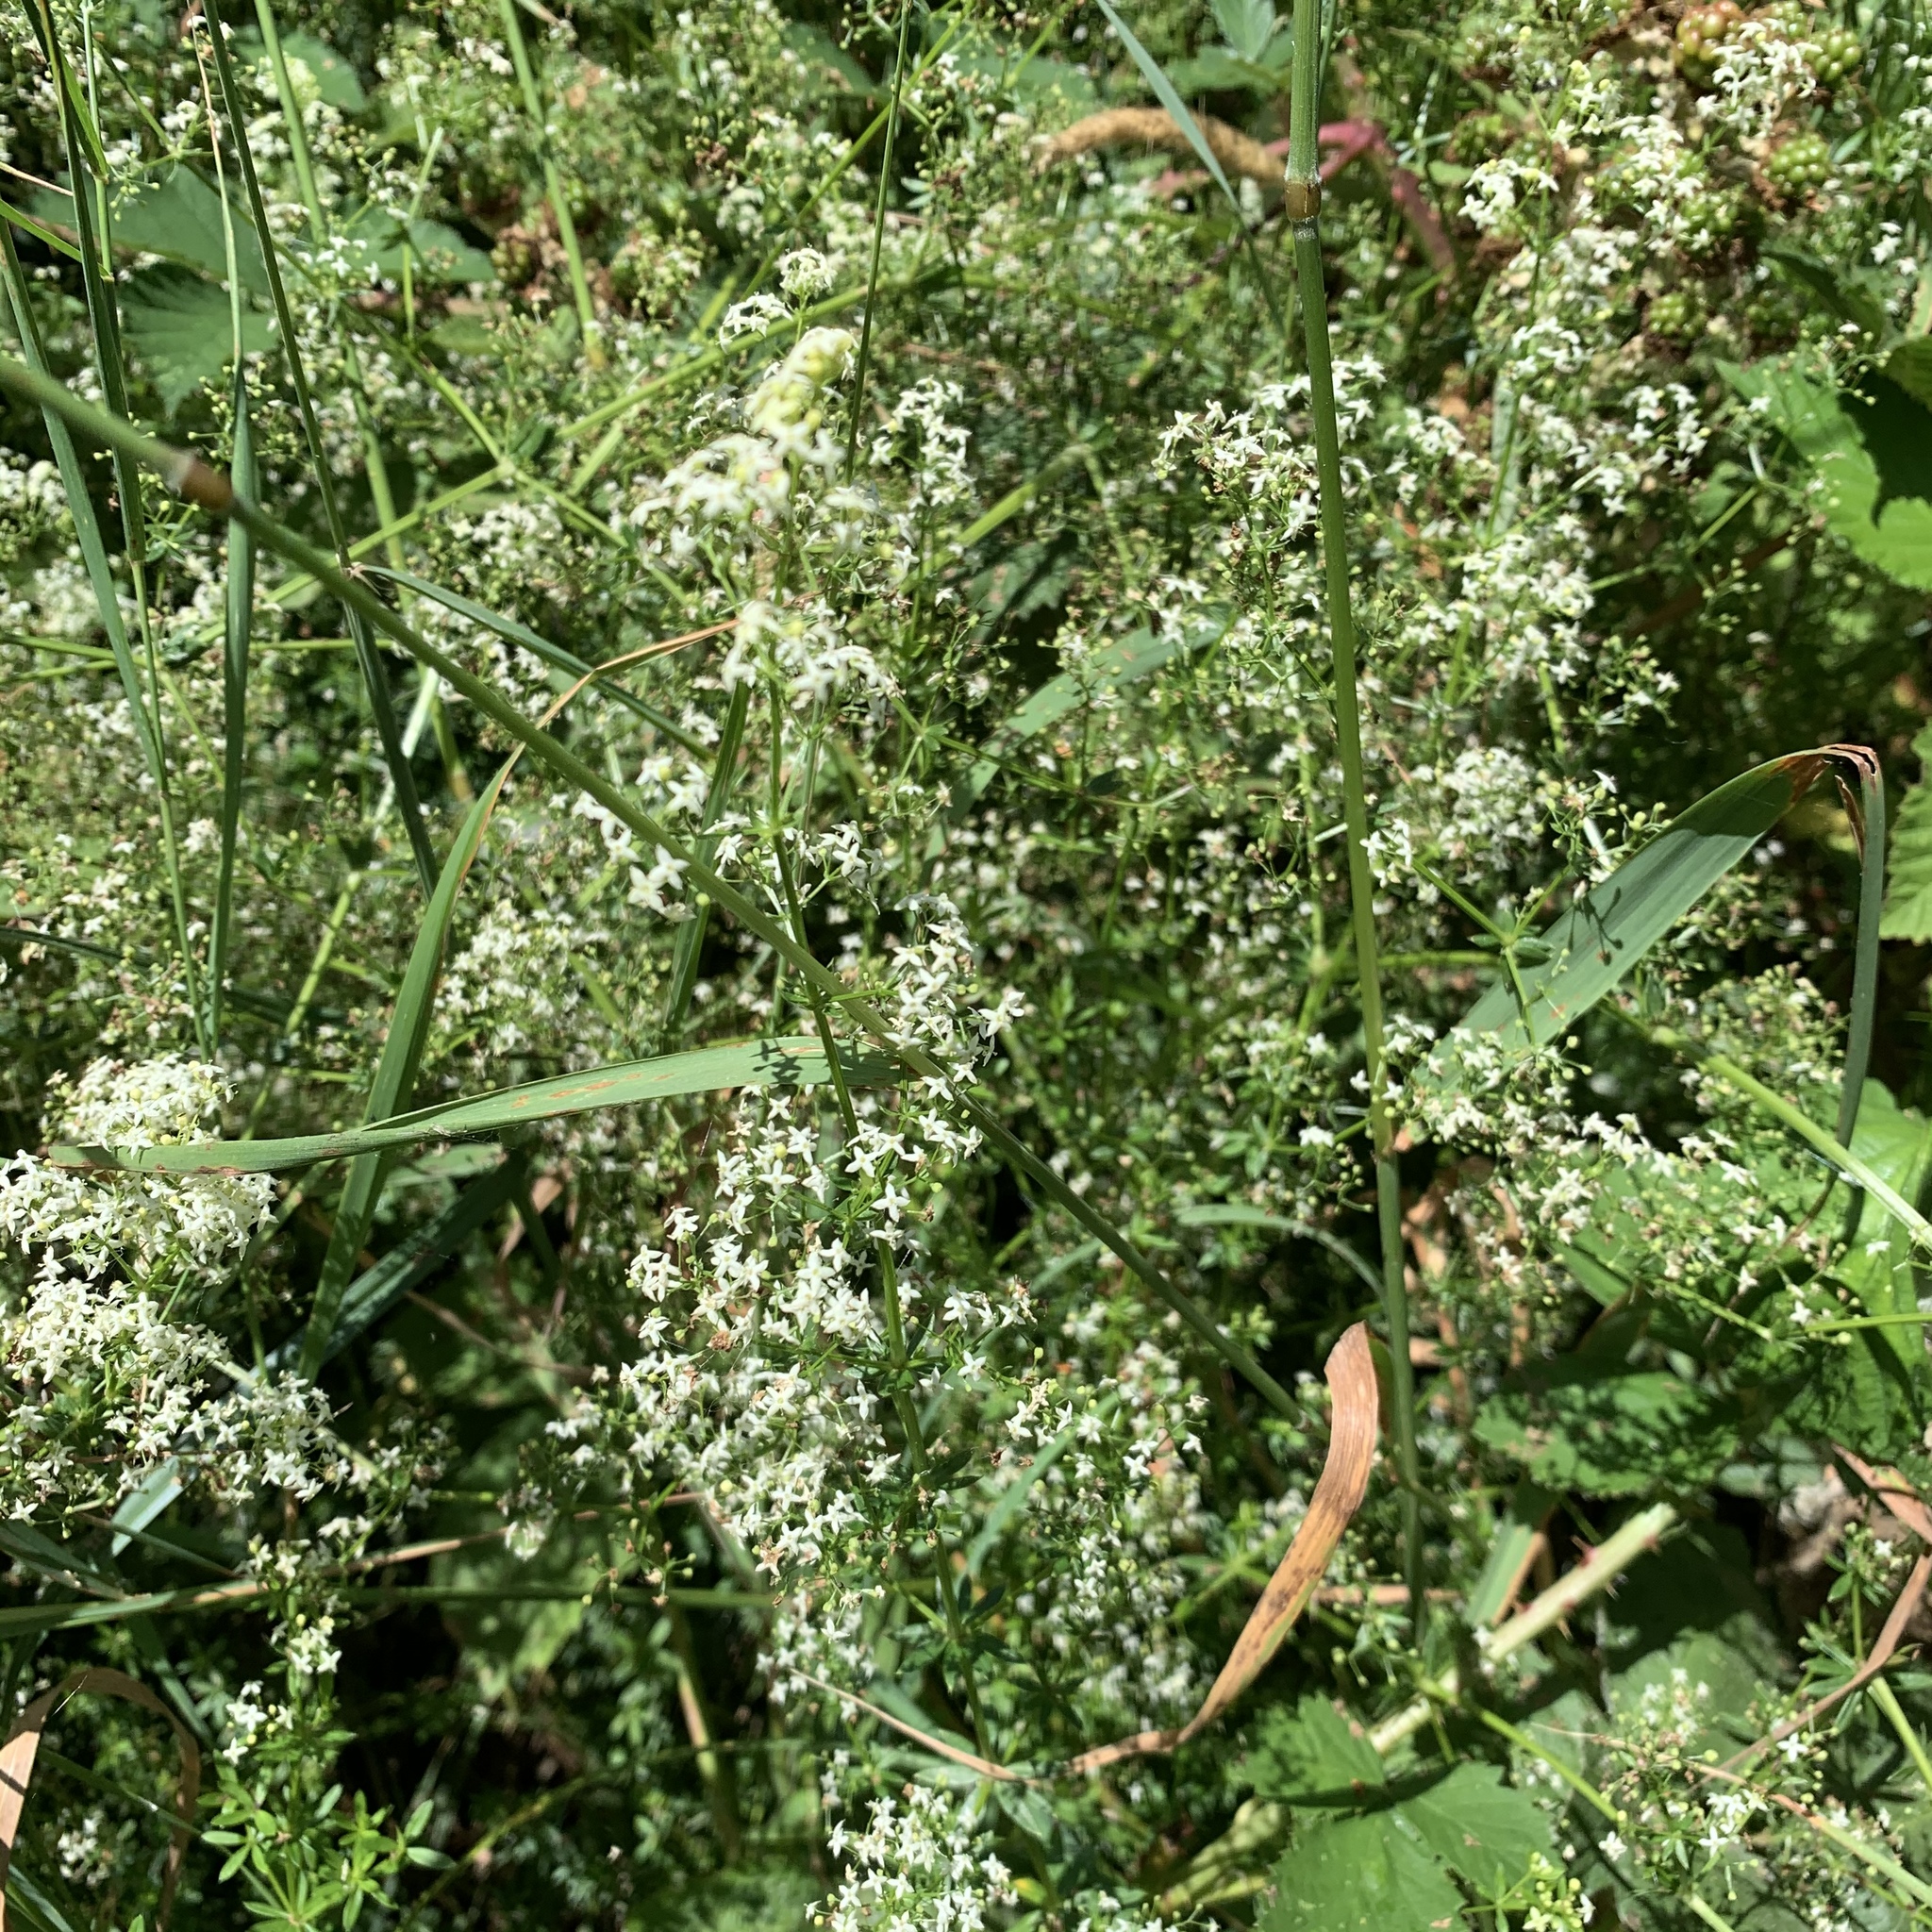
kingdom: Plantae
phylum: Tracheophyta
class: Magnoliopsida
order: Gentianales
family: Rubiaceae
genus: Galium
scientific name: Galium mollugo
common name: Hedge bedstraw
